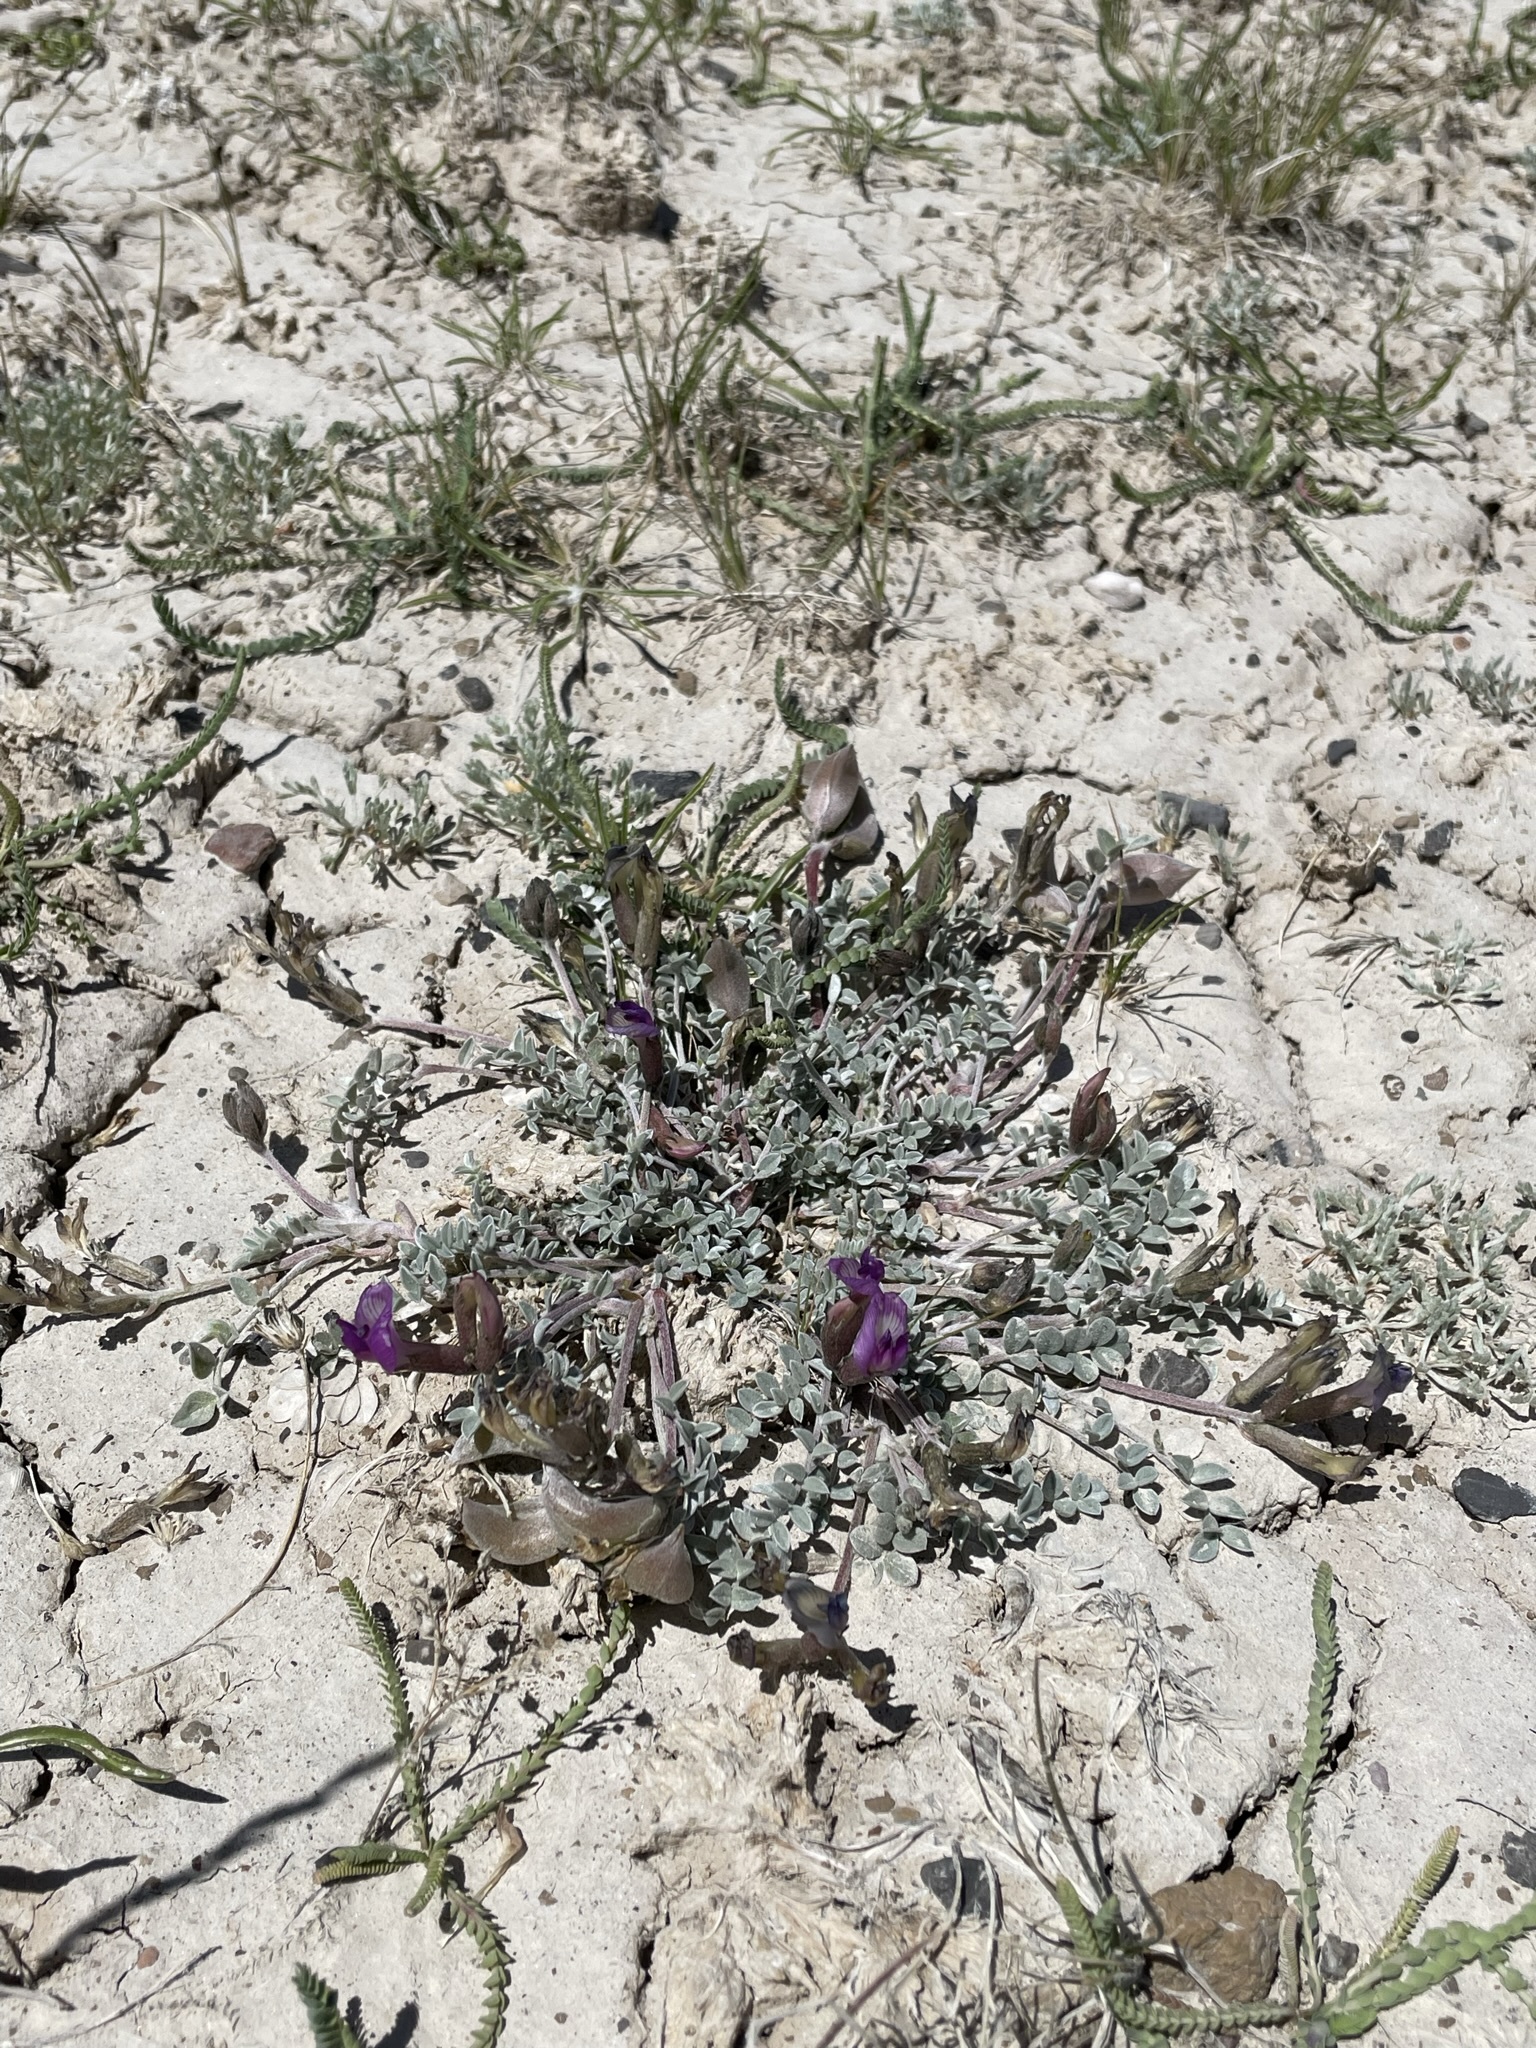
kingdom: Plantae
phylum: Tracheophyta
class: Magnoliopsida
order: Fabales
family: Fabaceae
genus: Astragalus
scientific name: Astragalus argophyllus
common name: Silverleaf milk-vetch
